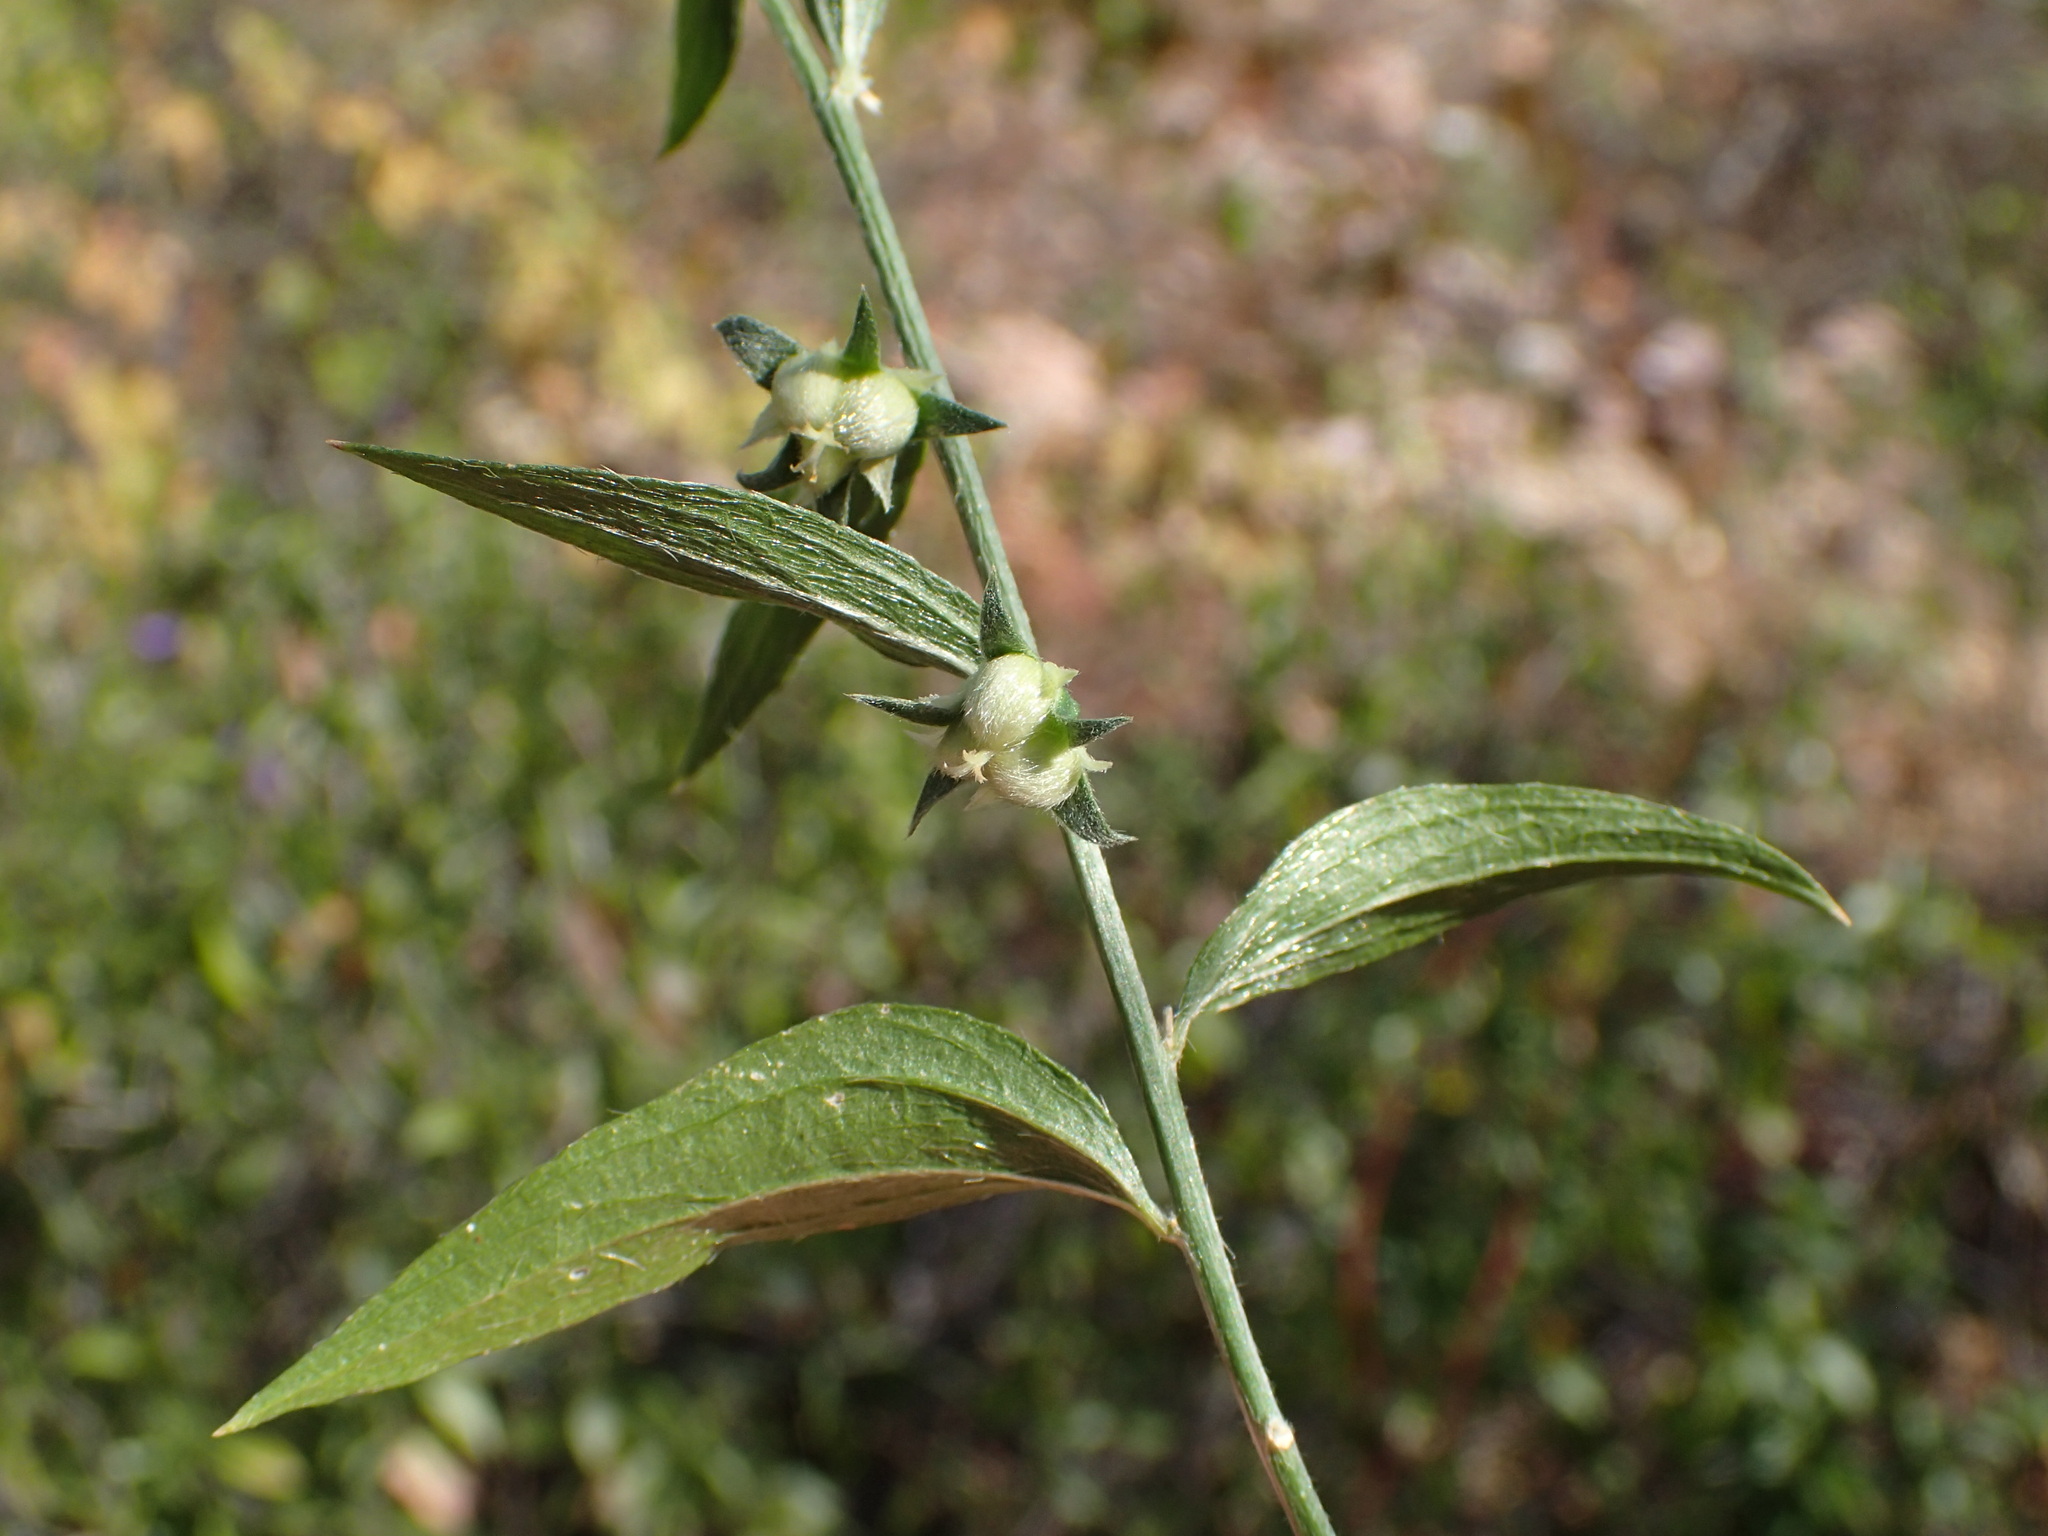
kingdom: Plantae
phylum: Tracheophyta
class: Magnoliopsida
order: Malpighiales
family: Euphorbiaceae
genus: Ditaxis
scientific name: Ditaxis lanceolata
